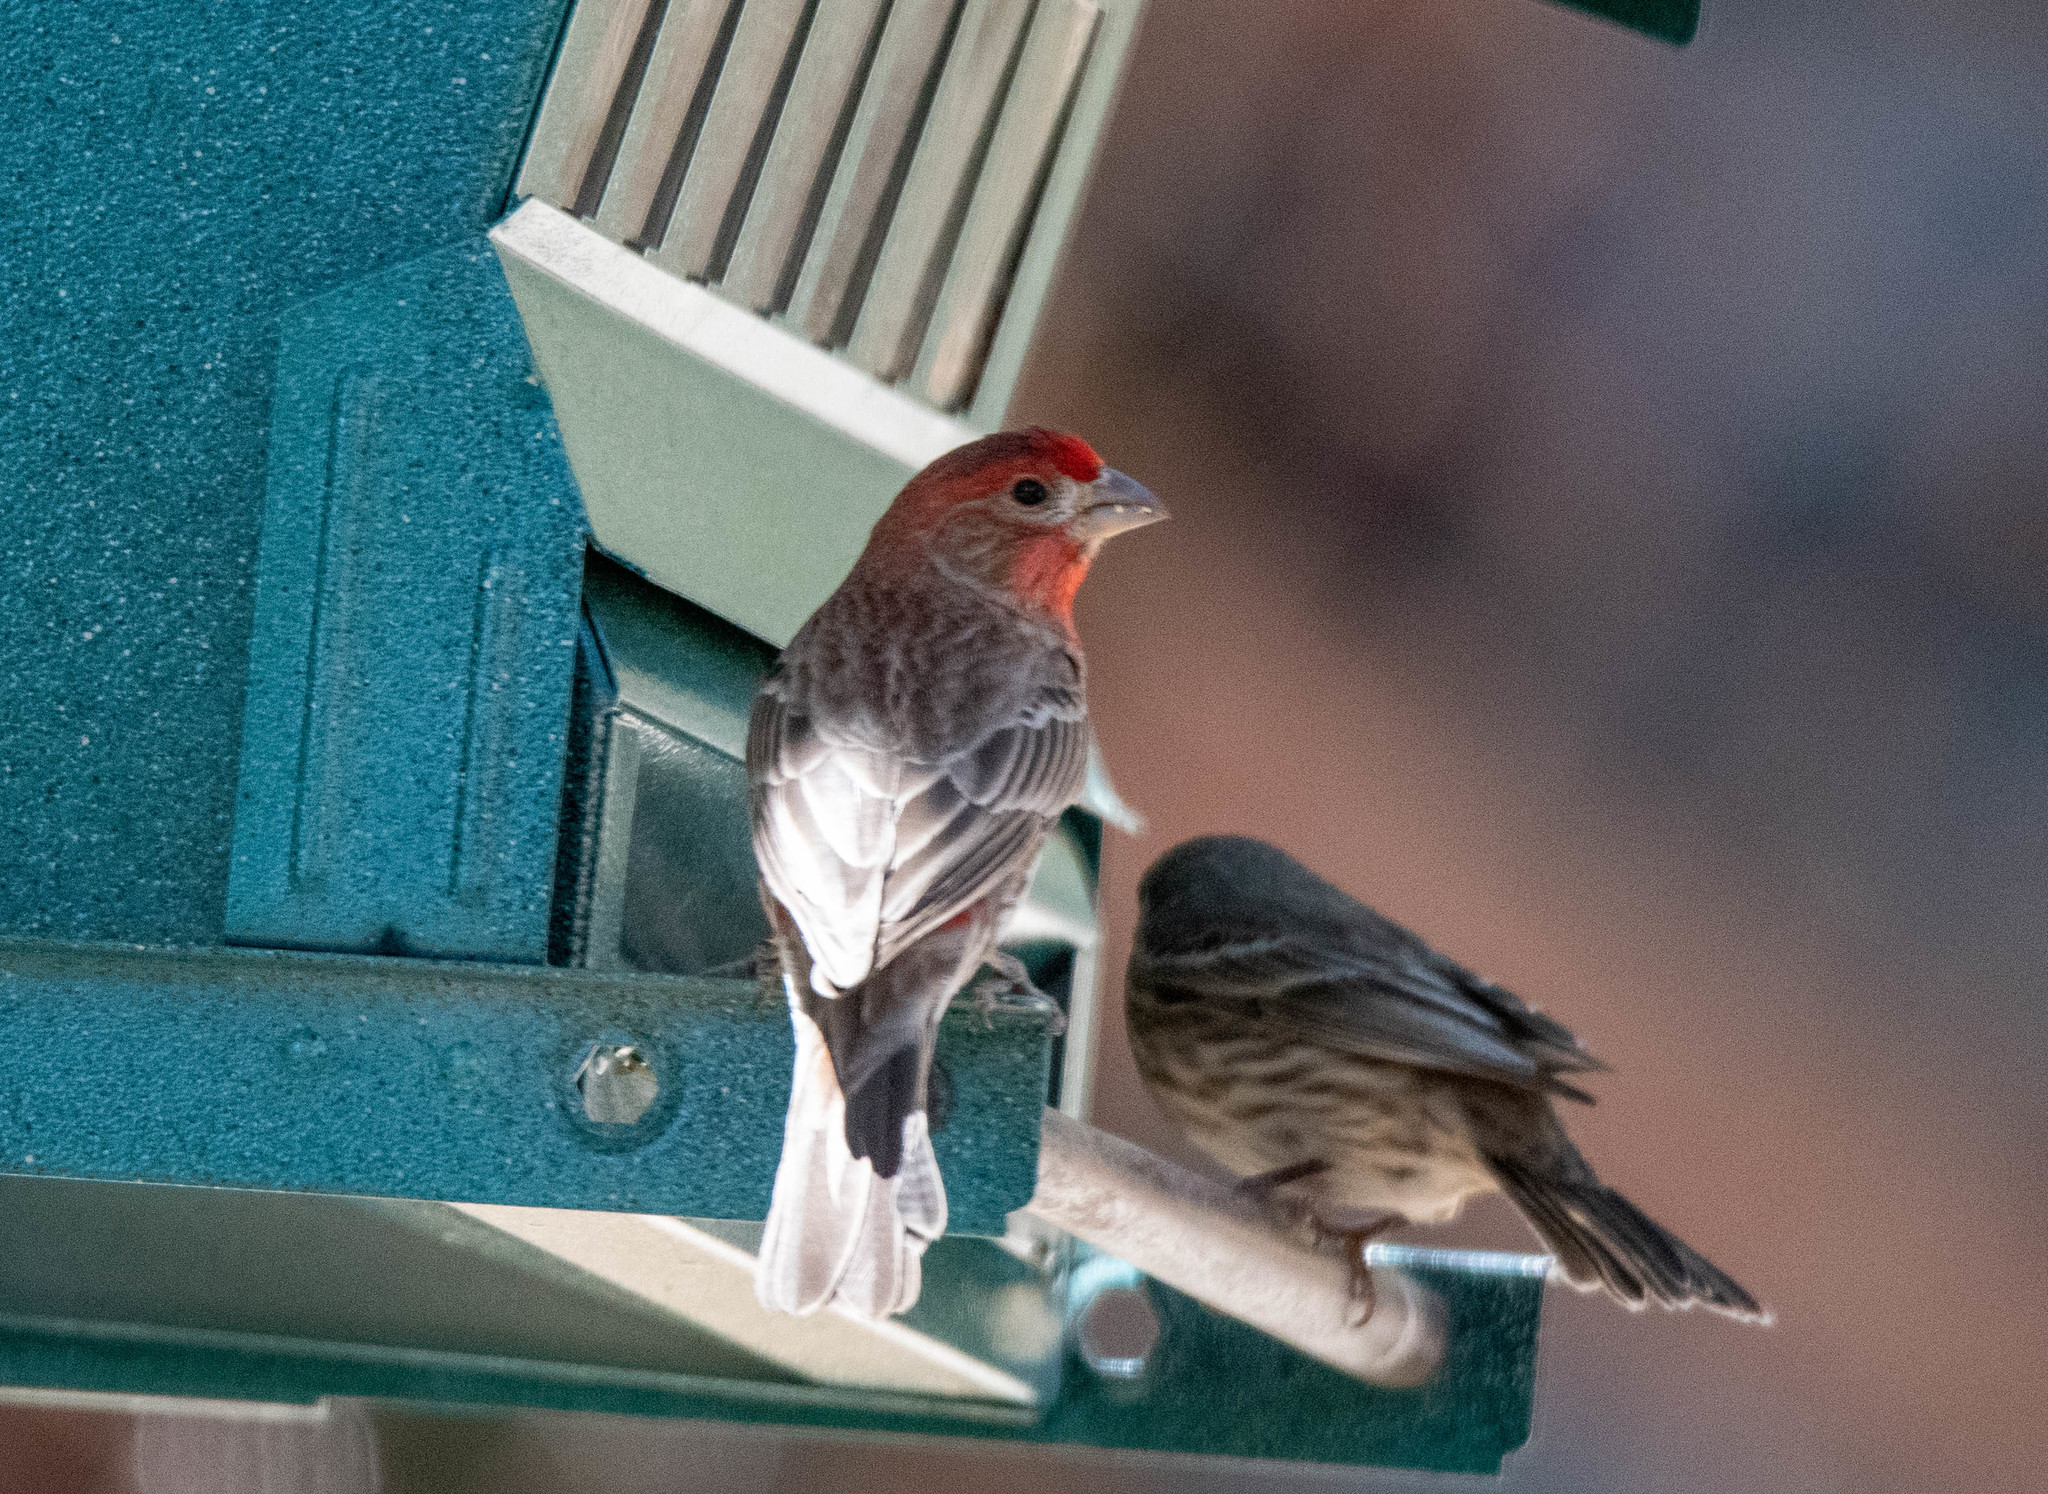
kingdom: Animalia
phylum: Chordata
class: Aves
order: Passeriformes
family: Fringillidae
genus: Haemorhous
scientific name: Haemorhous mexicanus
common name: House finch
